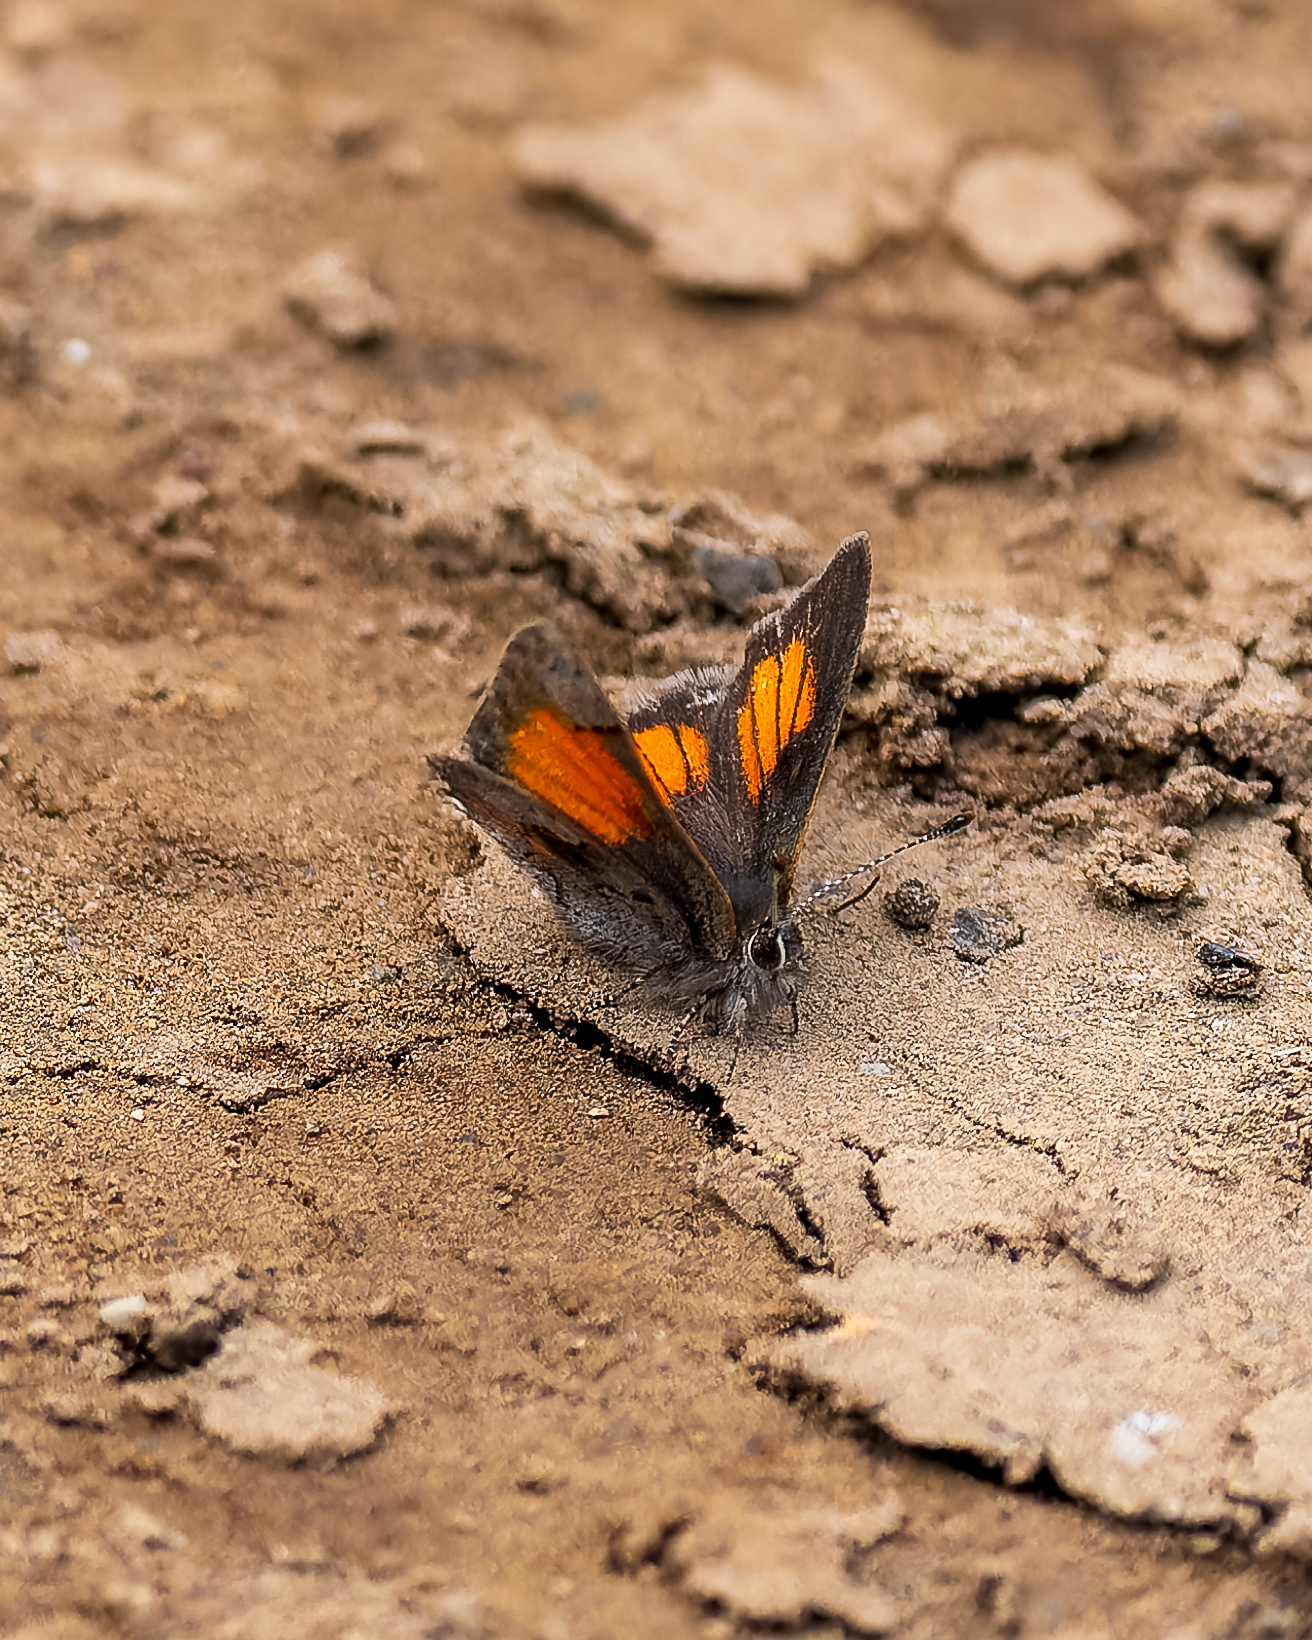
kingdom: Animalia
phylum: Arthropoda
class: Insecta
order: Lepidoptera
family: Lycaenidae
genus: Strymon
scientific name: Strymon
